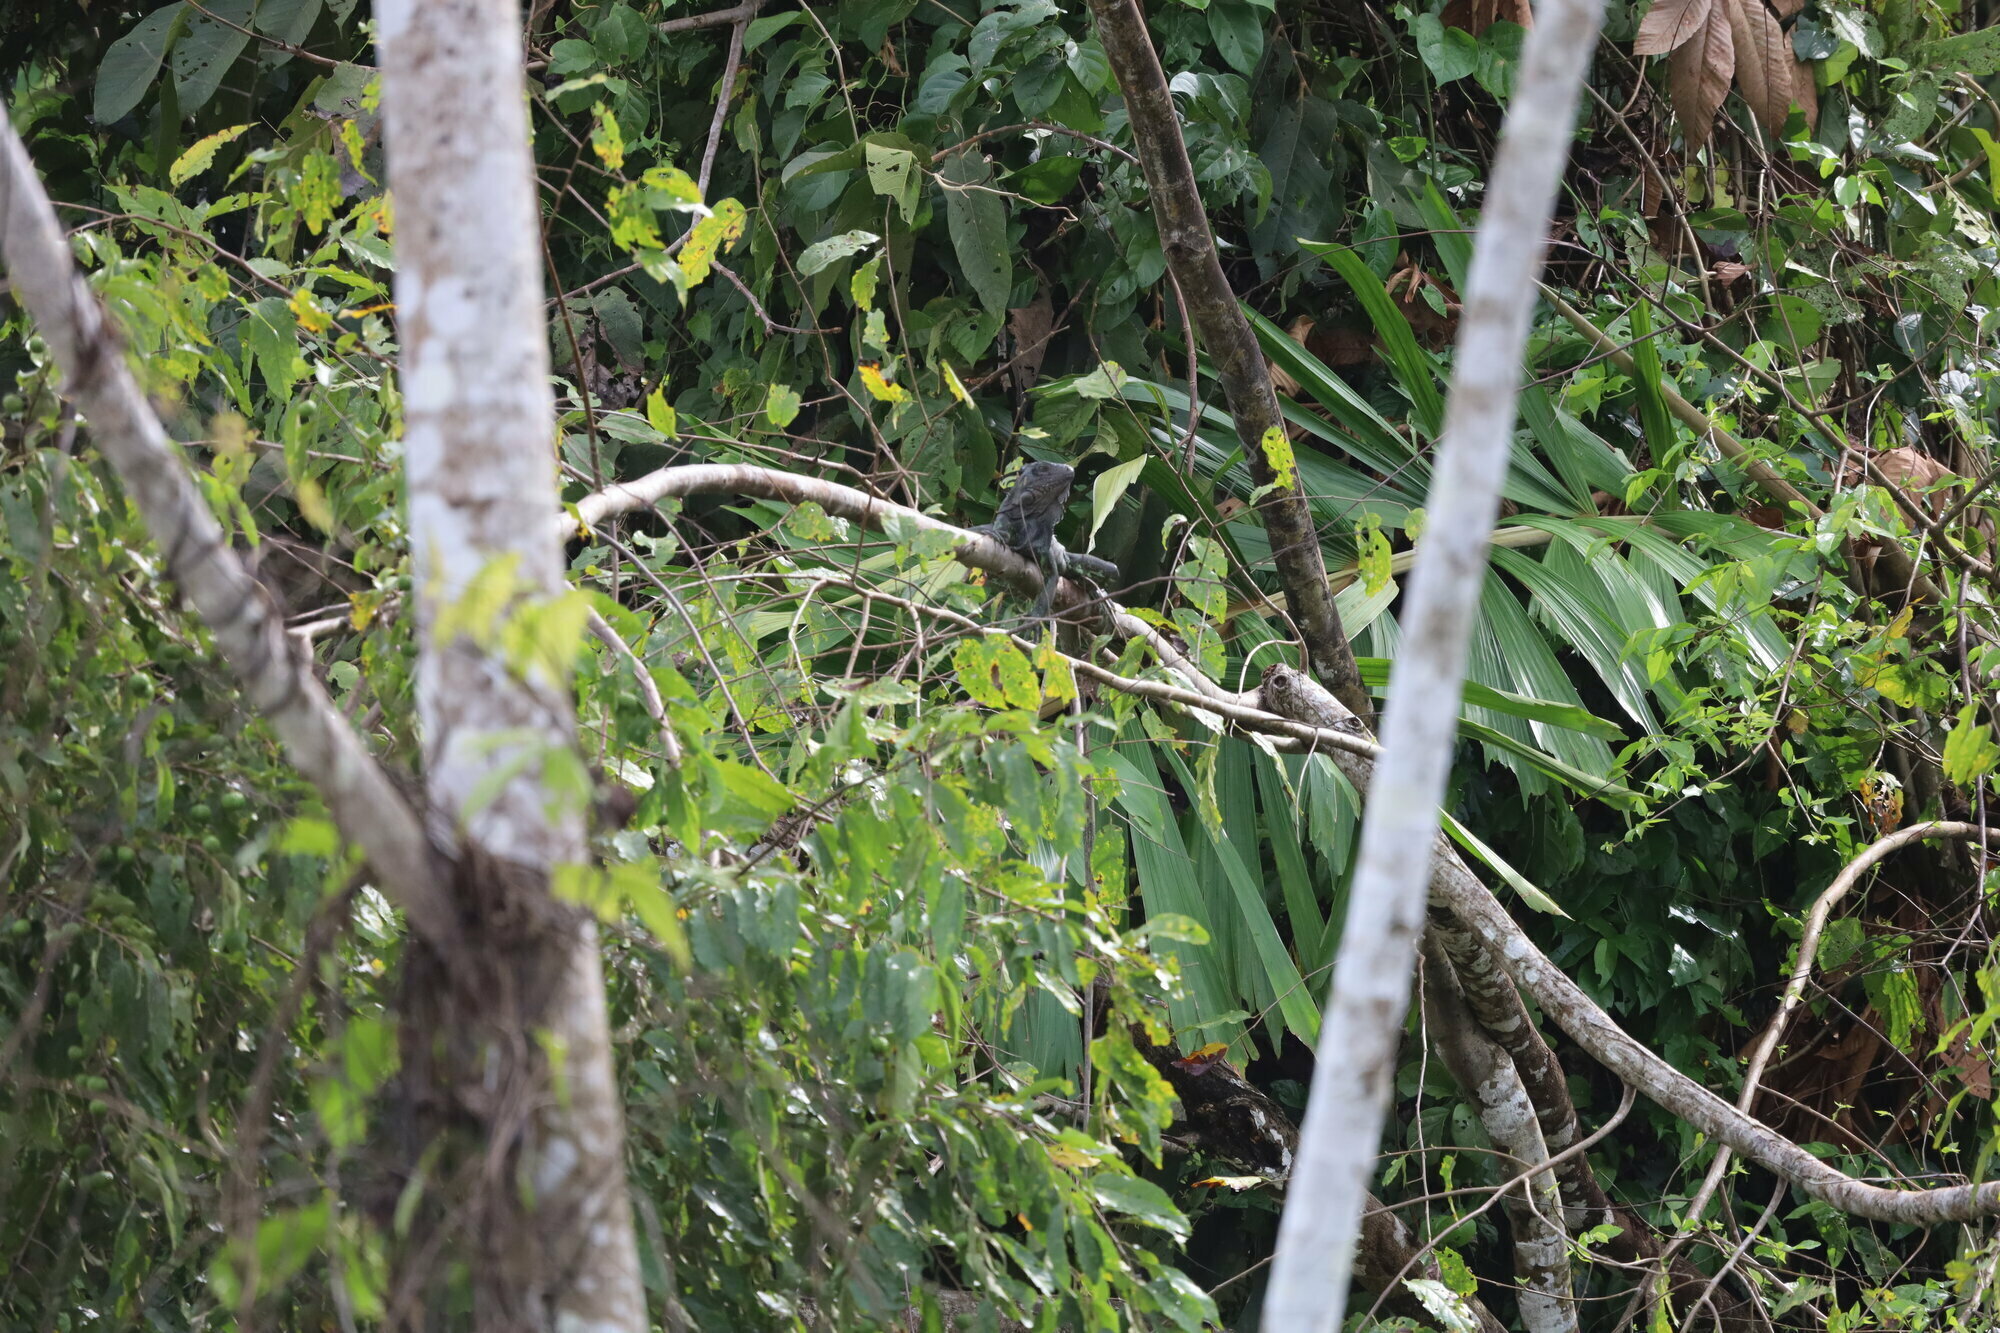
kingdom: Animalia
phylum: Chordata
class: Squamata
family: Iguanidae
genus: Iguana
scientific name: Iguana iguana
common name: Green iguana
